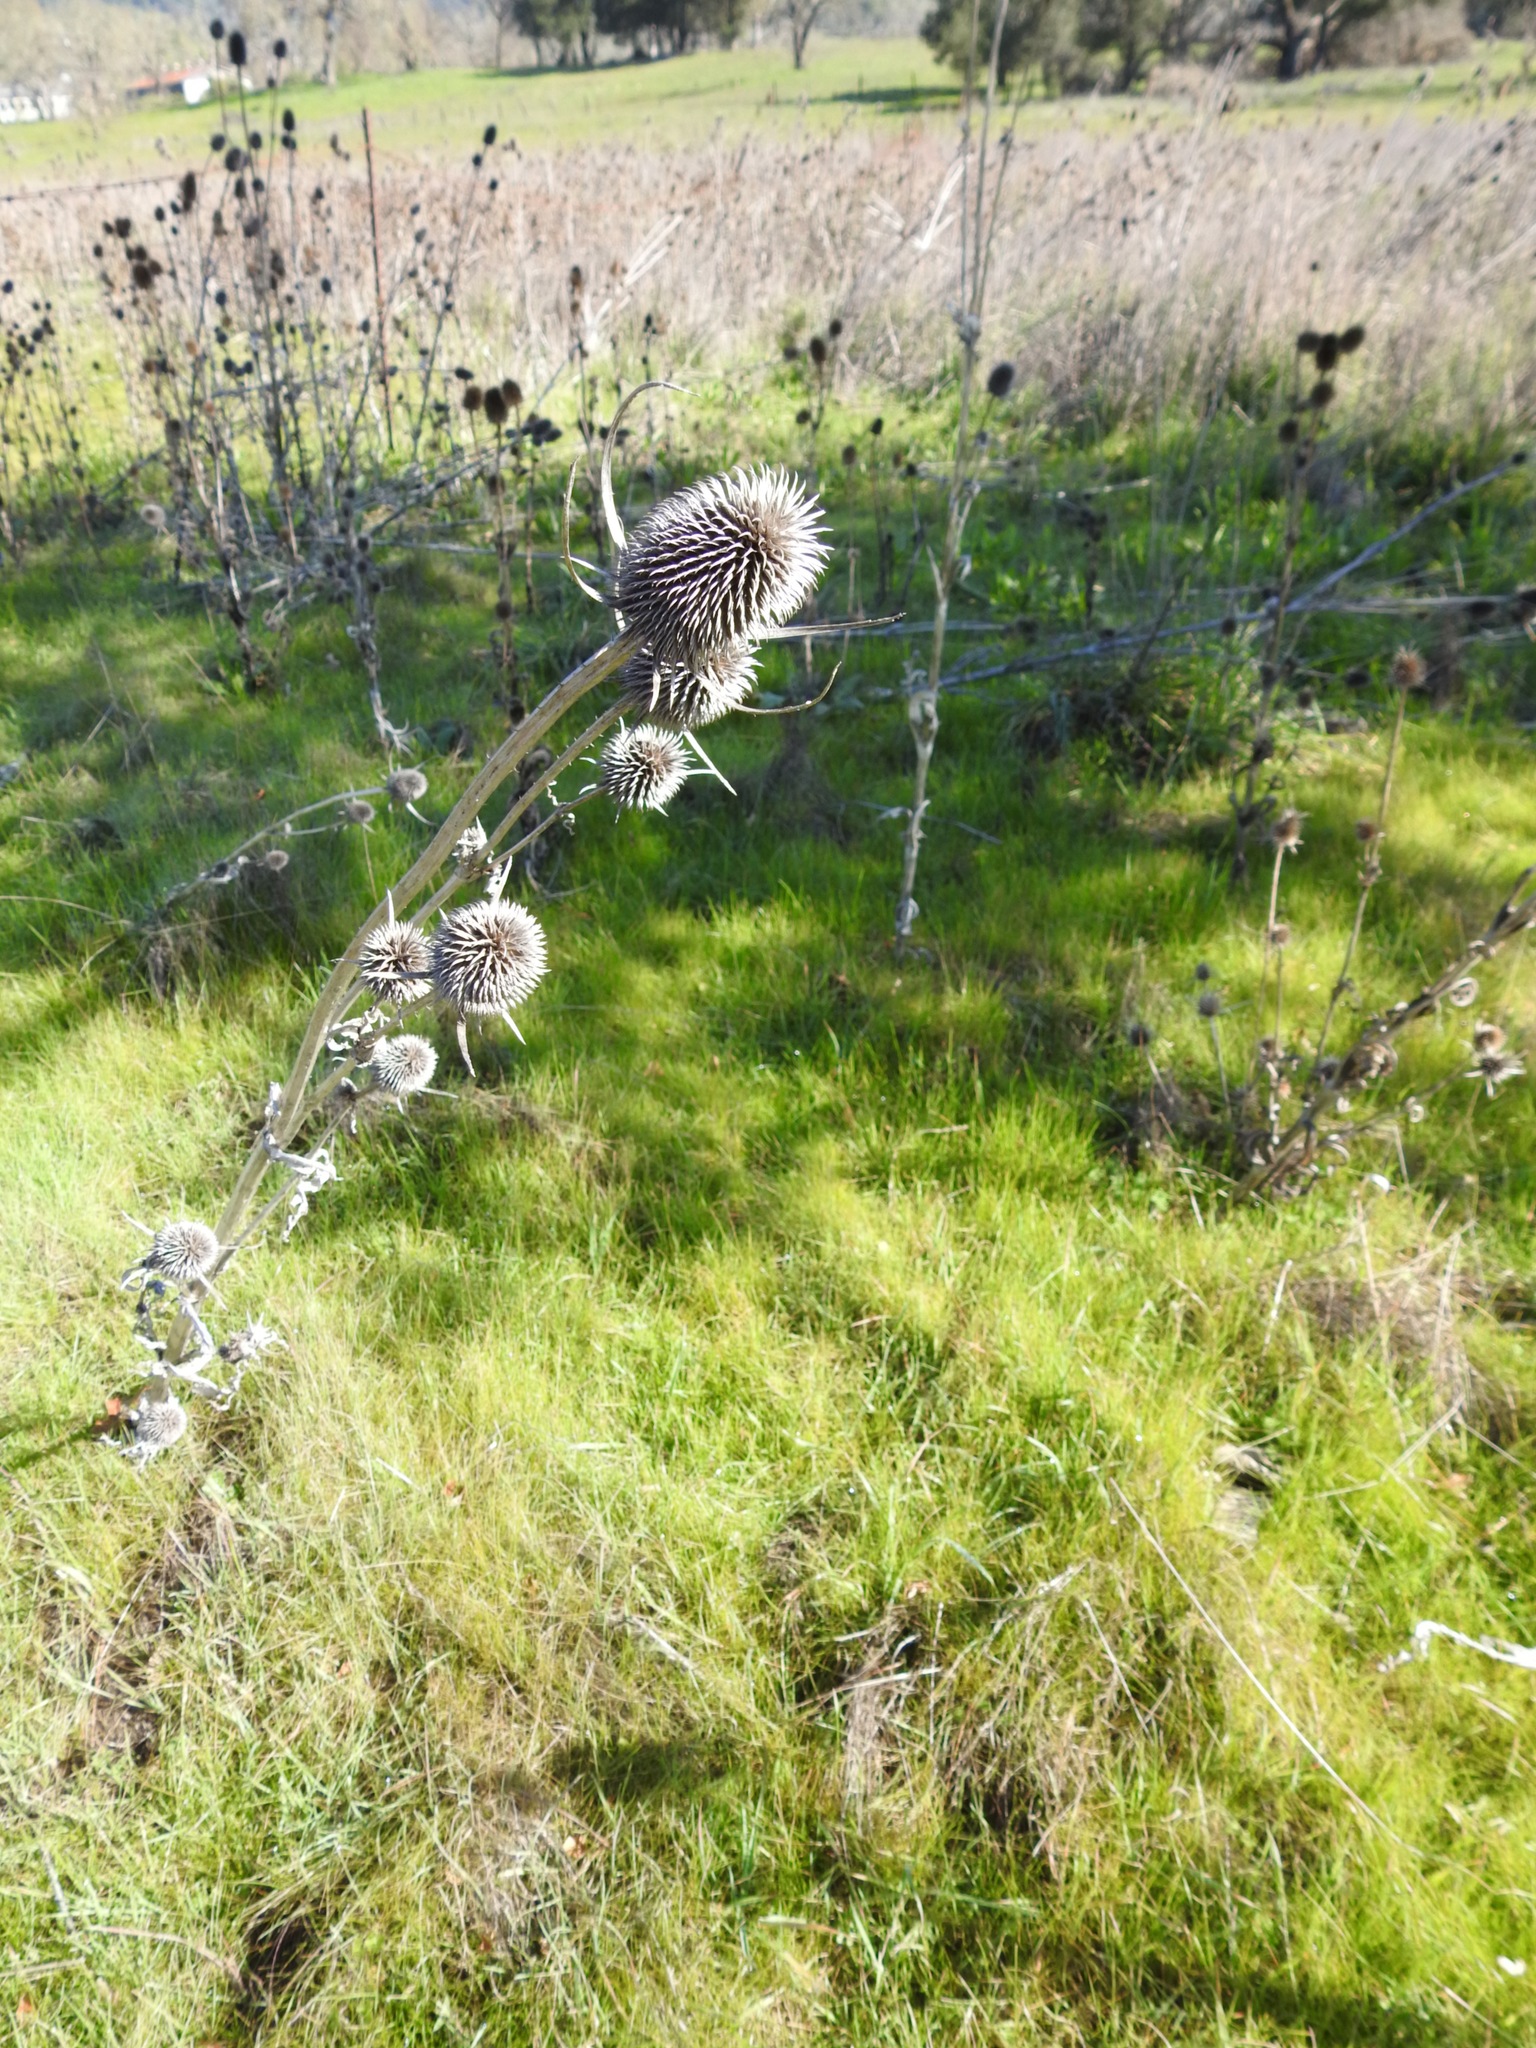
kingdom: Plantae
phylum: Tracheophyta
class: Magnoliopsida
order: Dipsacales
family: Caprifoliaceae
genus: Dipsacus
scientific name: Dipsacus sativus
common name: Fuller's teasel
